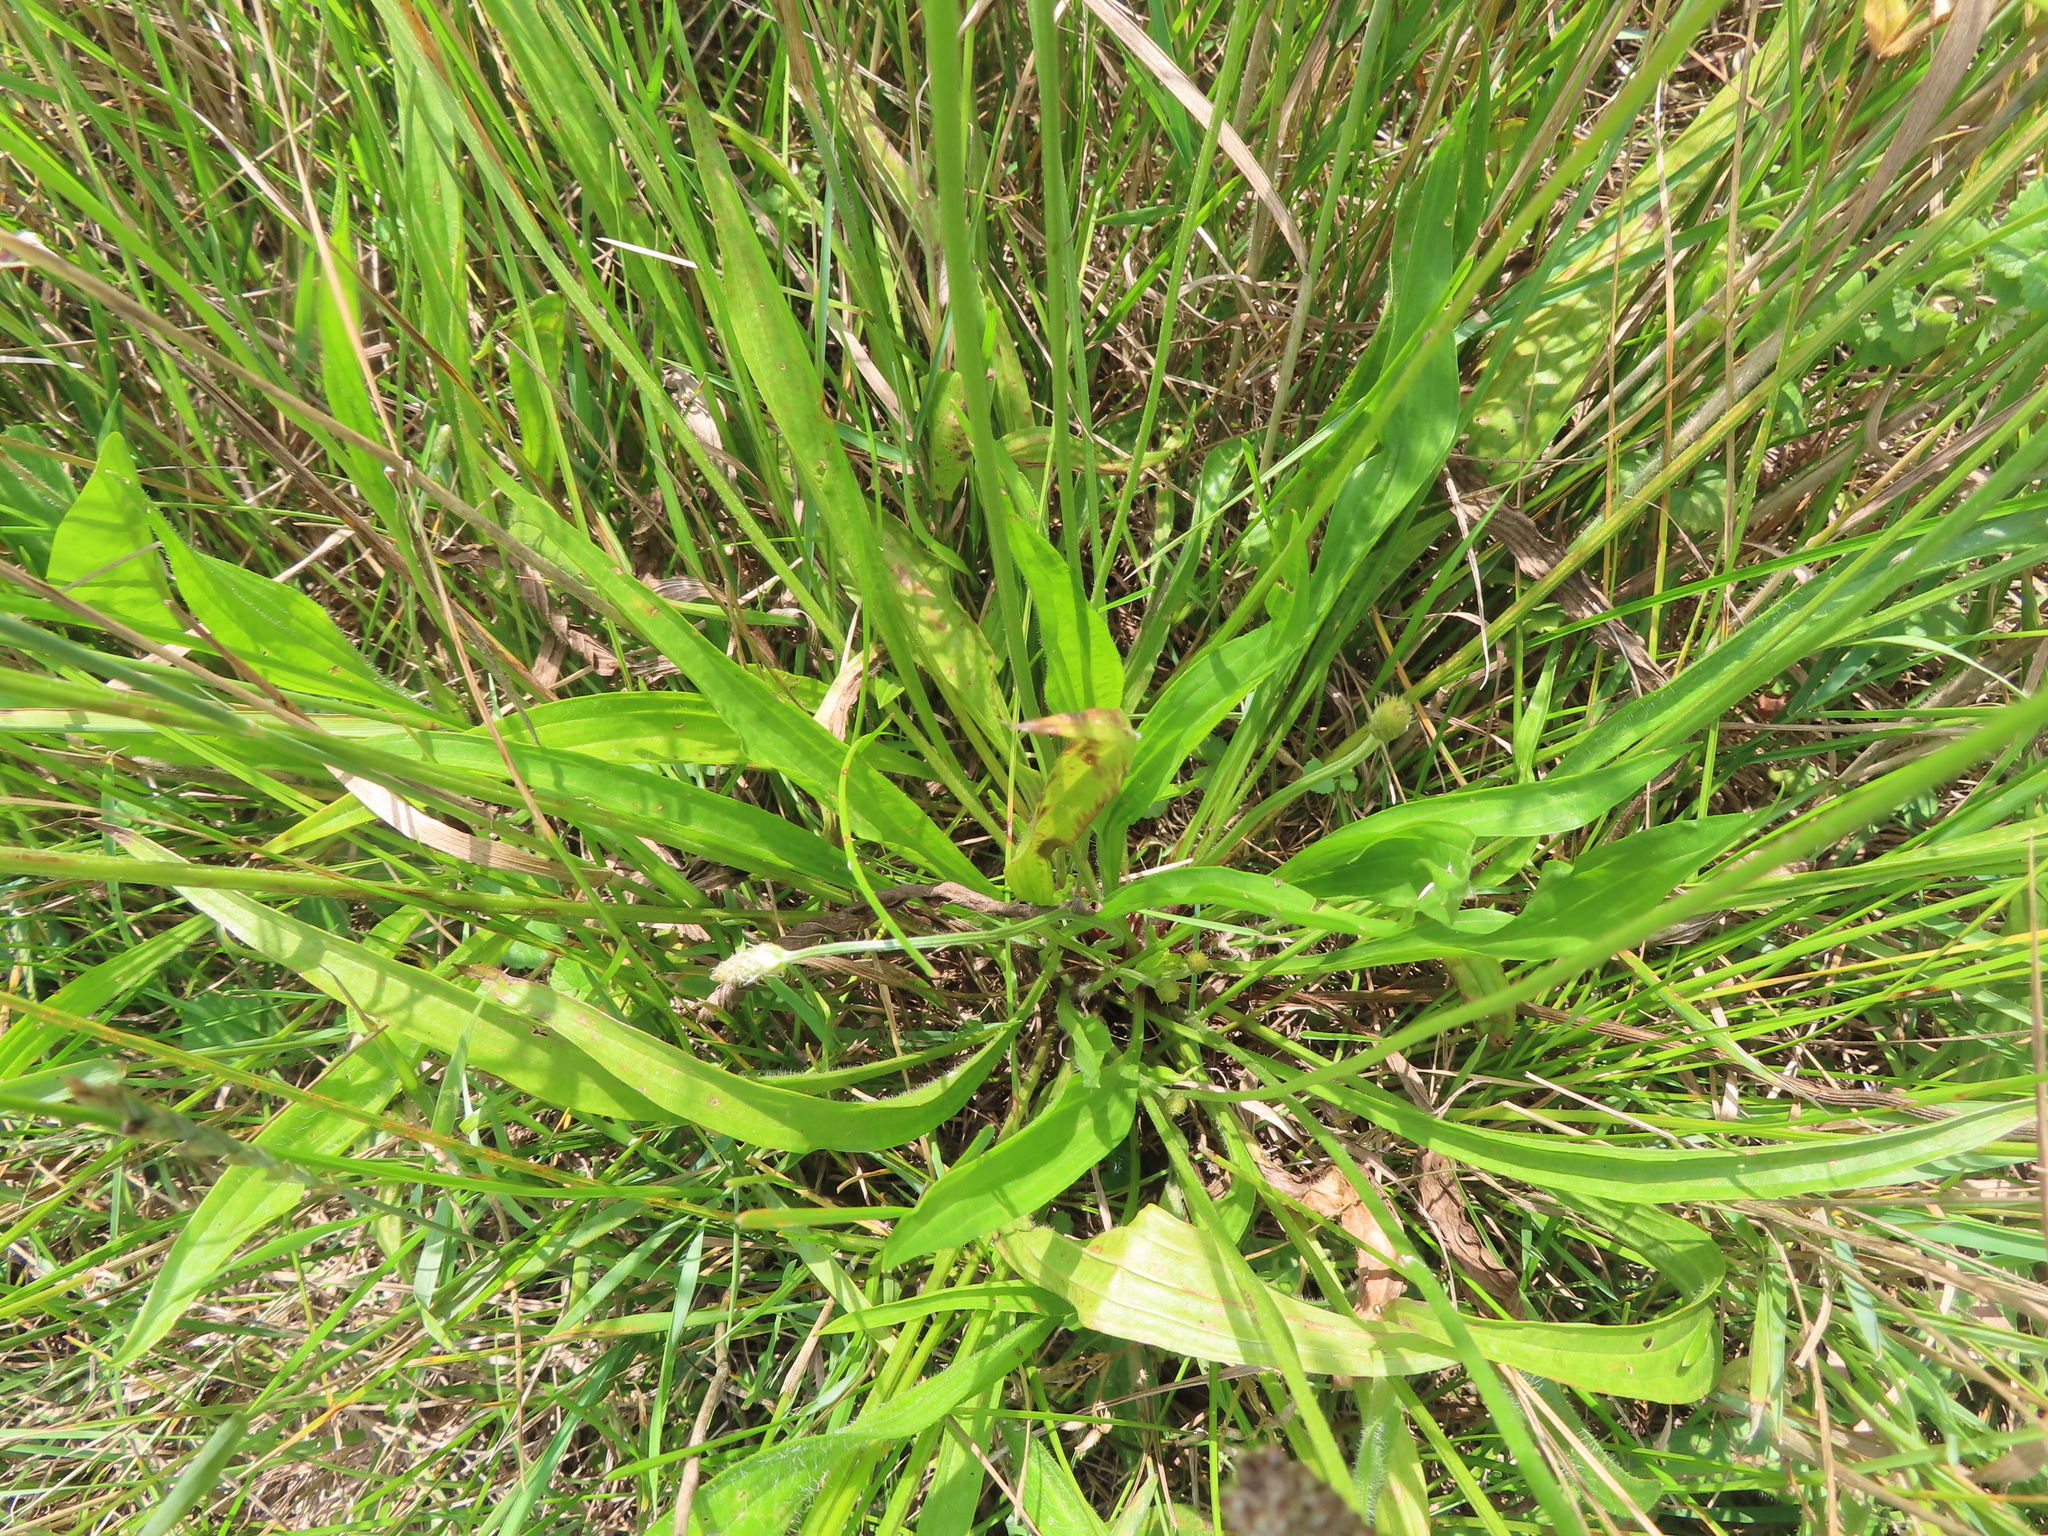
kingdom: Plantae
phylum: Tracheophyta
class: Magnoliopsida
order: Lamiales
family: Plantaginaceae
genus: Plantago
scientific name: Plantago lanceolata
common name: Ribwort plantain
